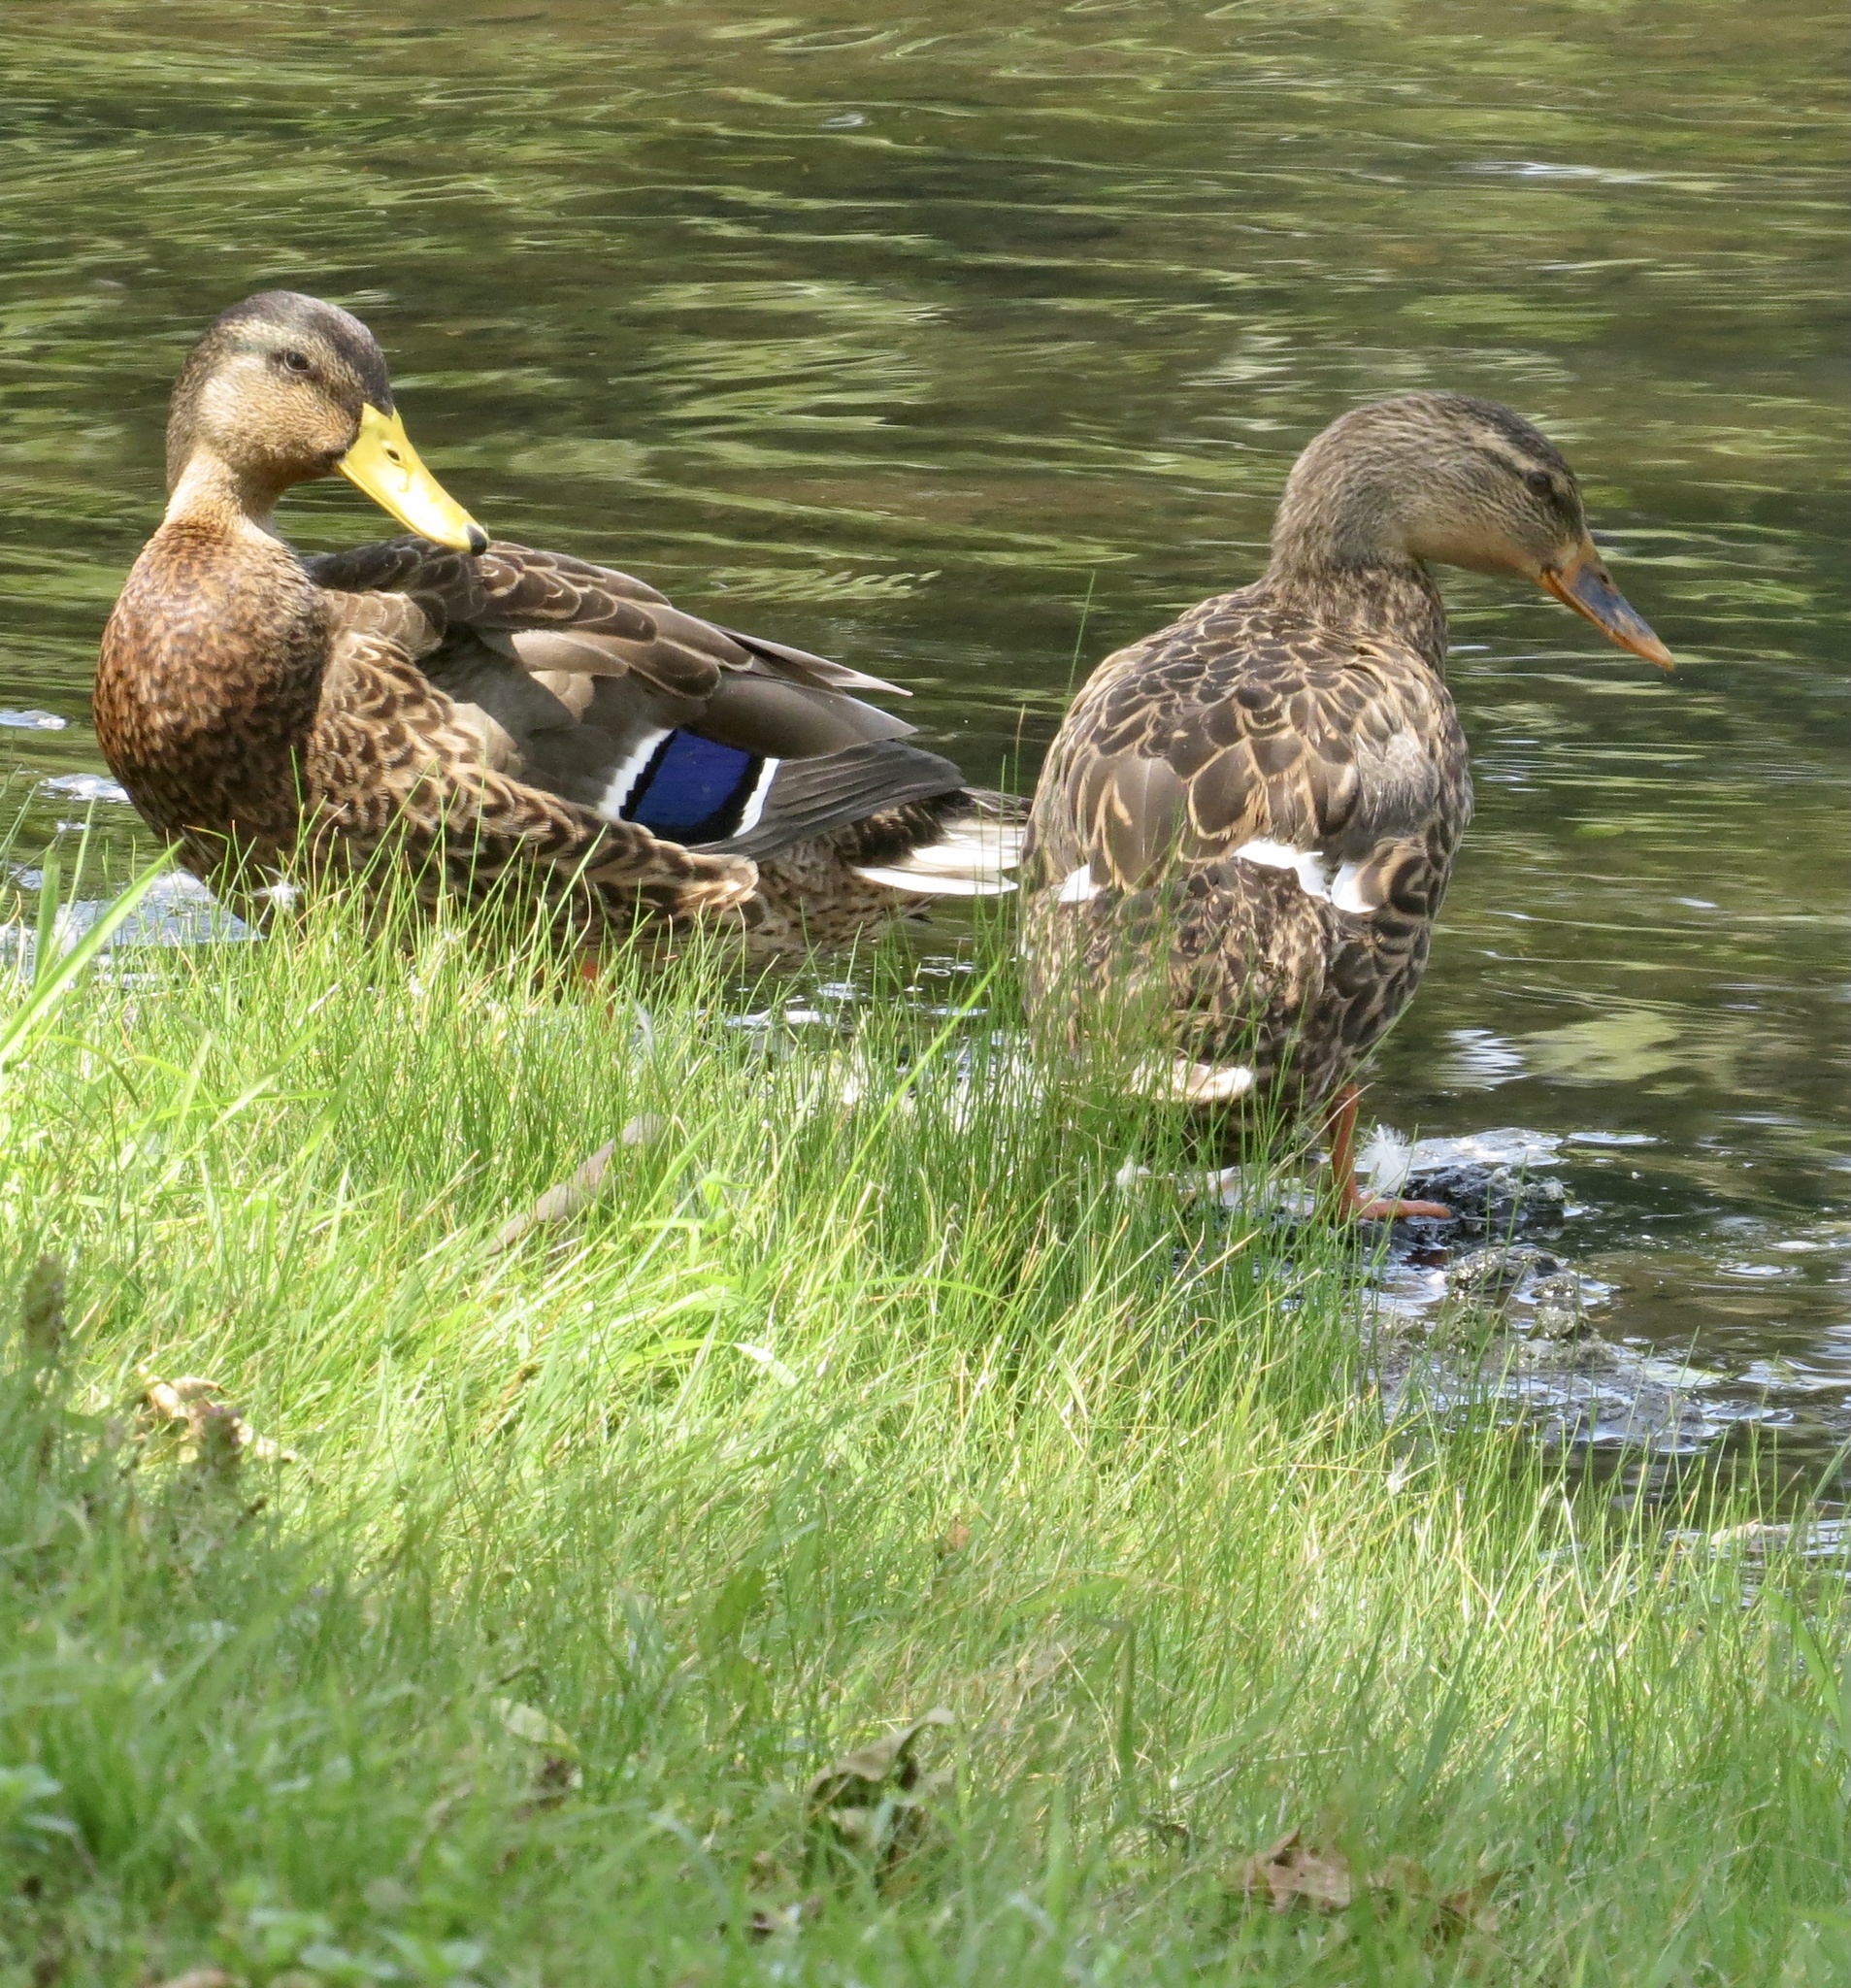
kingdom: Animalia
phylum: Chordata
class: Aves
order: Anseriformes
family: Anatidae
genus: Anas
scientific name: Anas platyrhynchos
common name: Mallard
